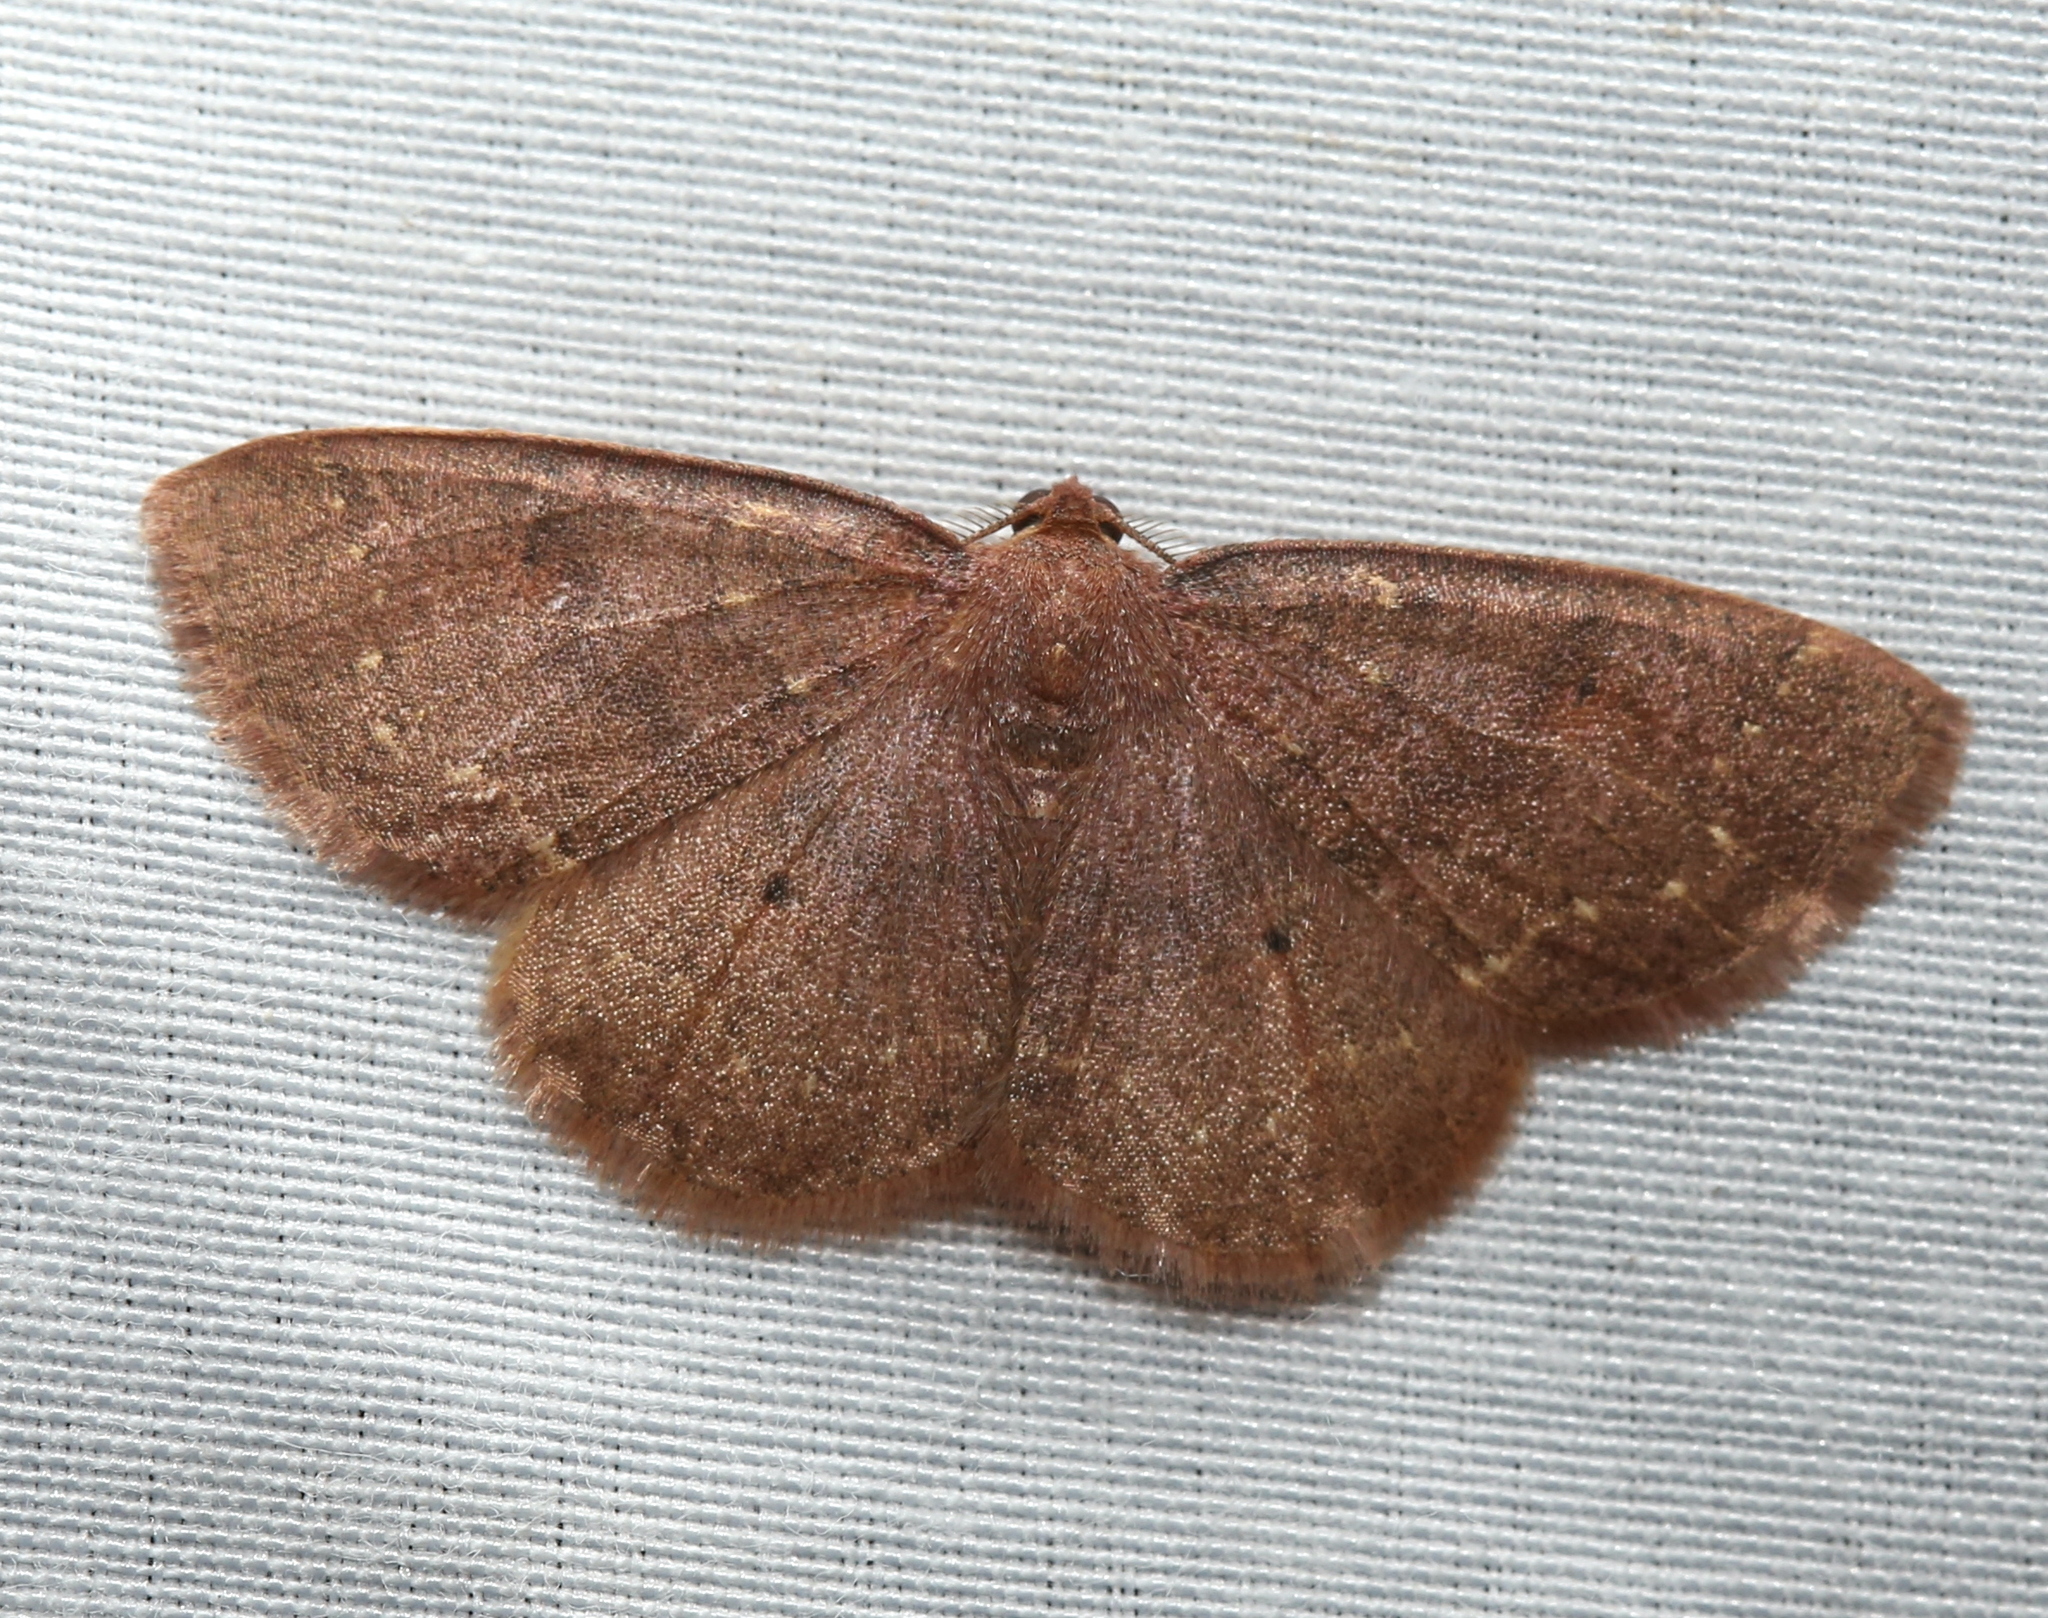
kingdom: Animalia
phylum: Arthropoda
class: Insecta
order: Lepidoptera
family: Geometridae
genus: Ilexia
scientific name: Ilexia intractata
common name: Black-dotted ruddy moth
